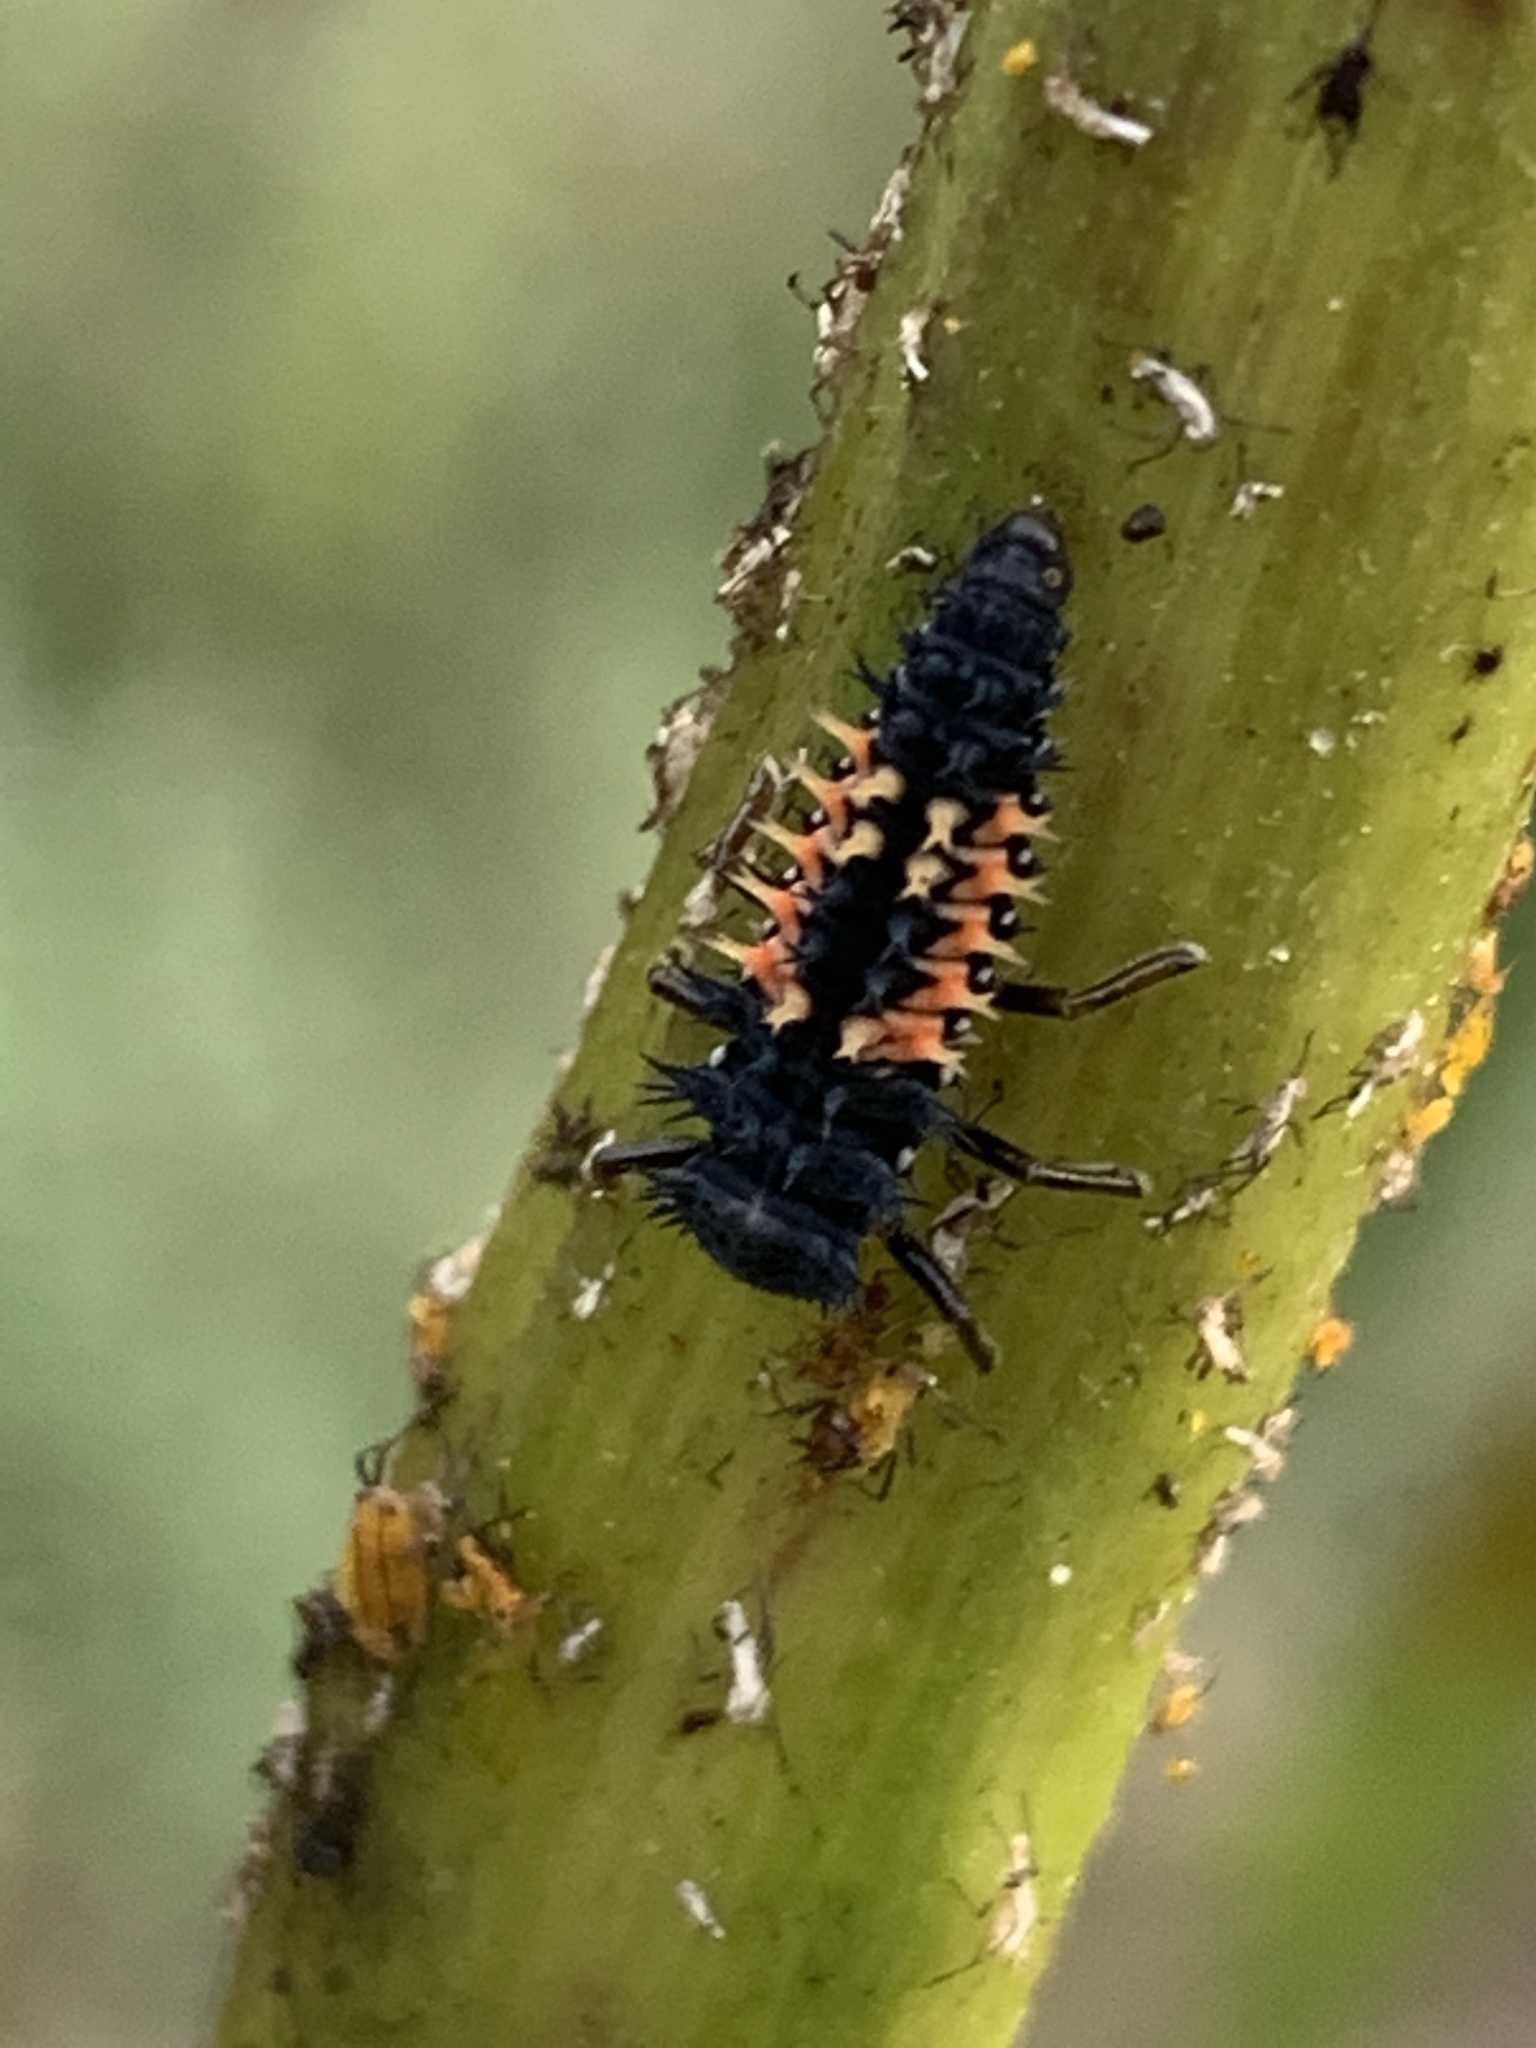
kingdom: Animalia
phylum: Arthropoda
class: Insecta
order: Coleoptera
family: Coccinellidae
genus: Harmonia
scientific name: Harmonia axyridis
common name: Harlequin ladybird
